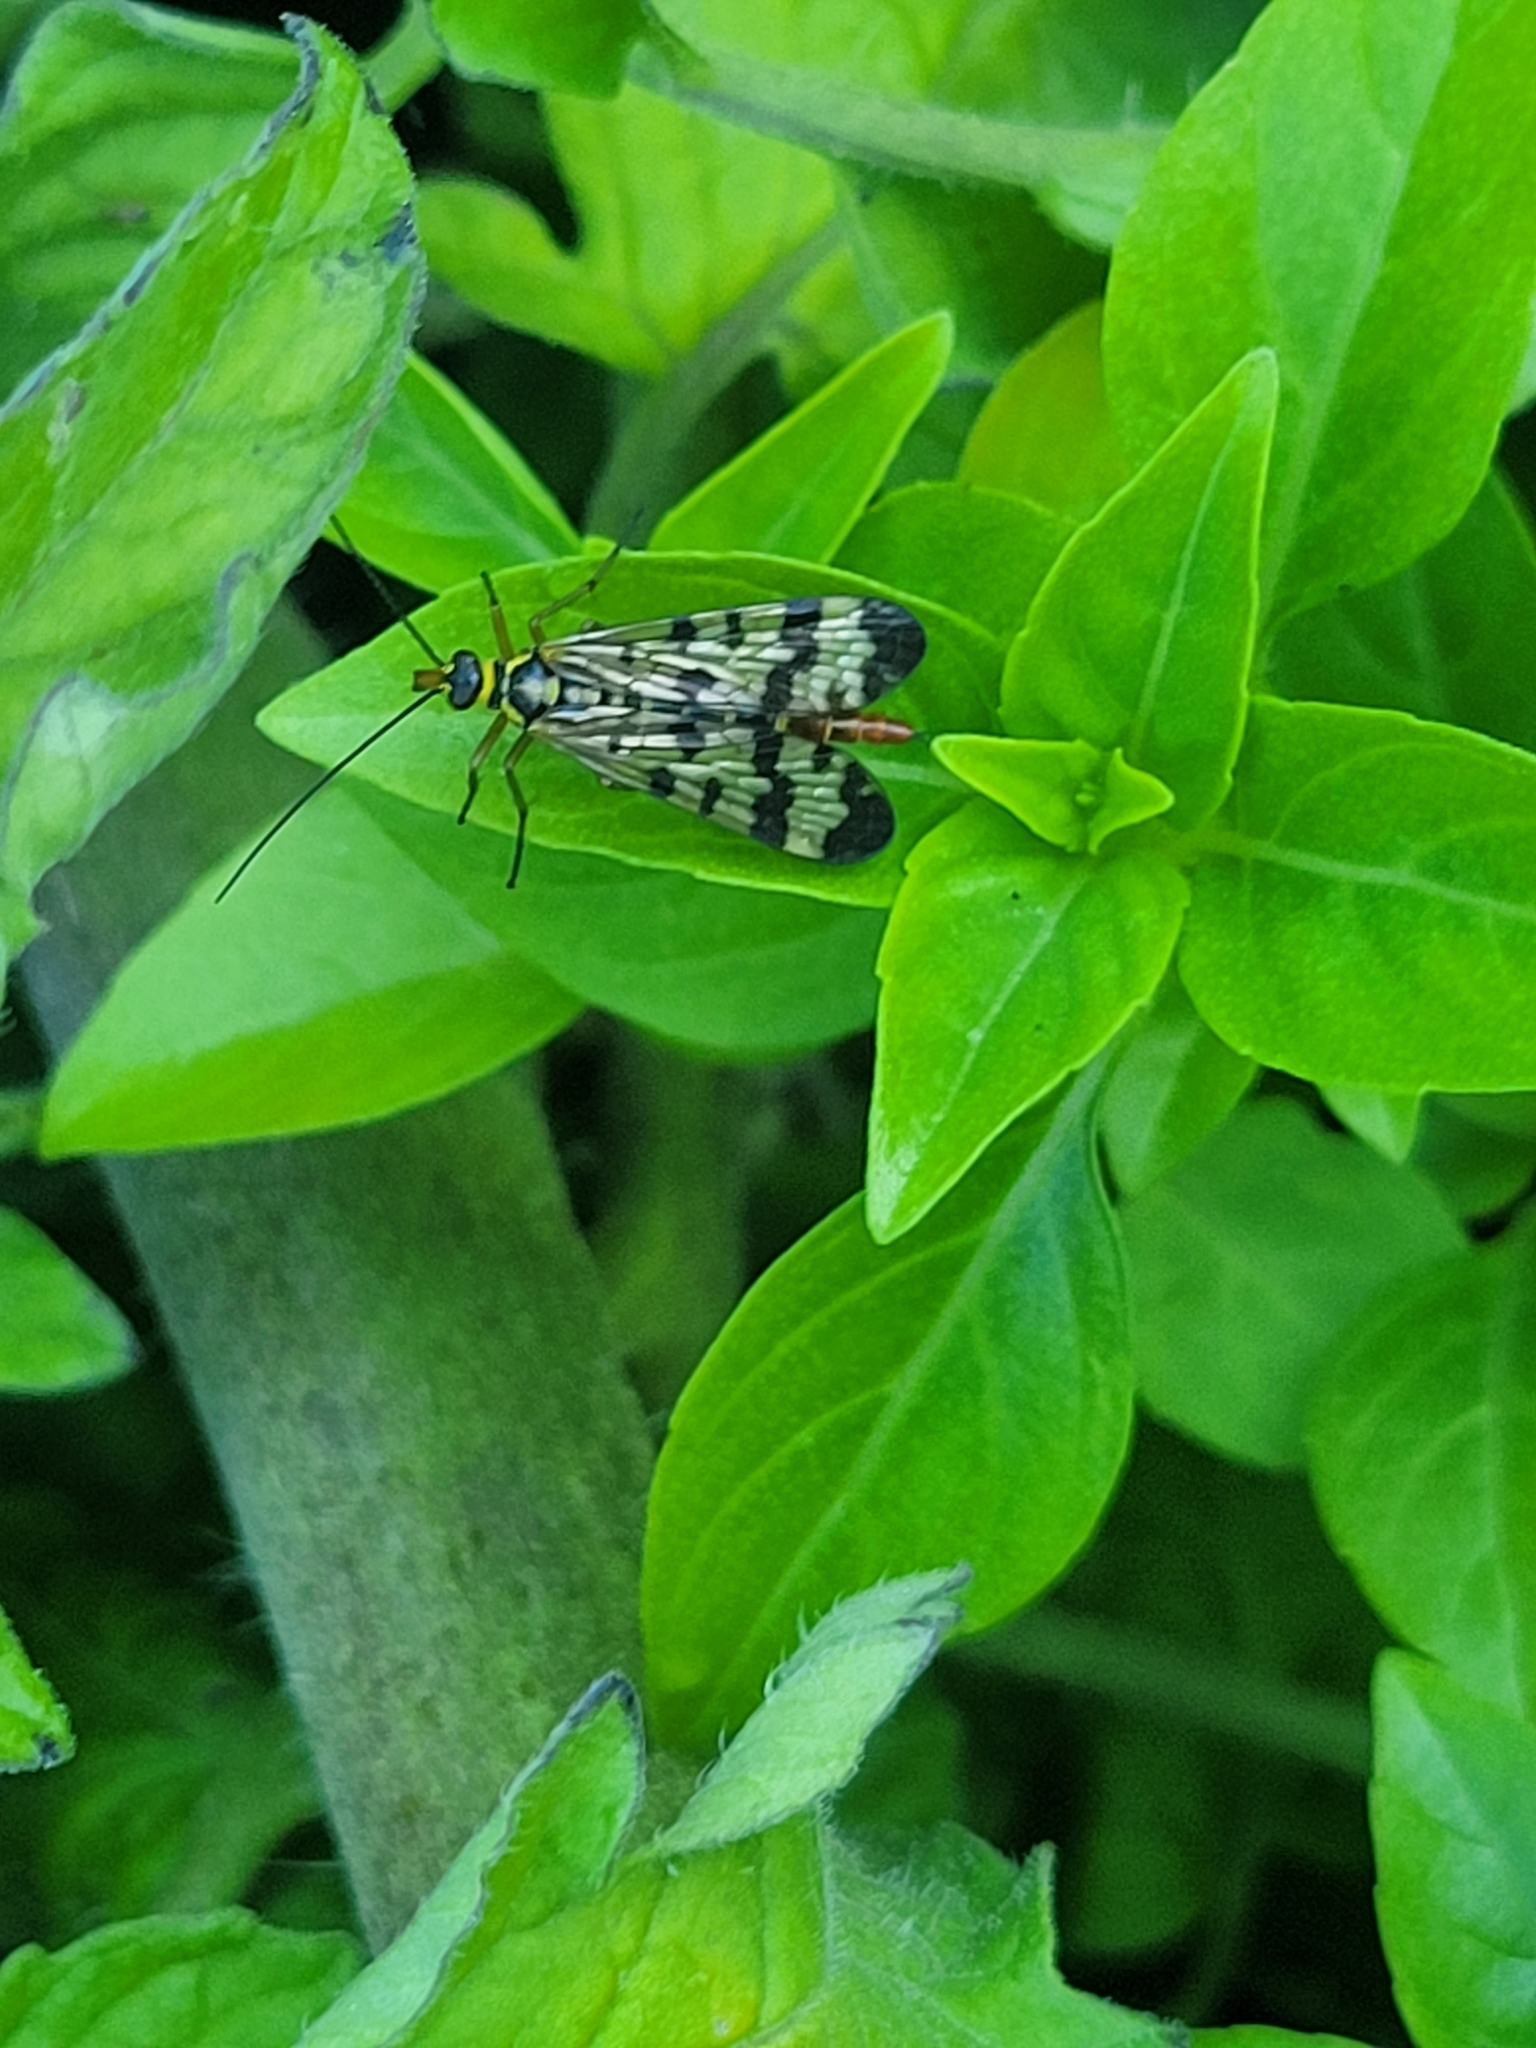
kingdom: Animalia
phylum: Arthropoda
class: Insecta
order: Mecoptera
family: Panorpidae
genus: Panorpa
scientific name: Panorpa communis
